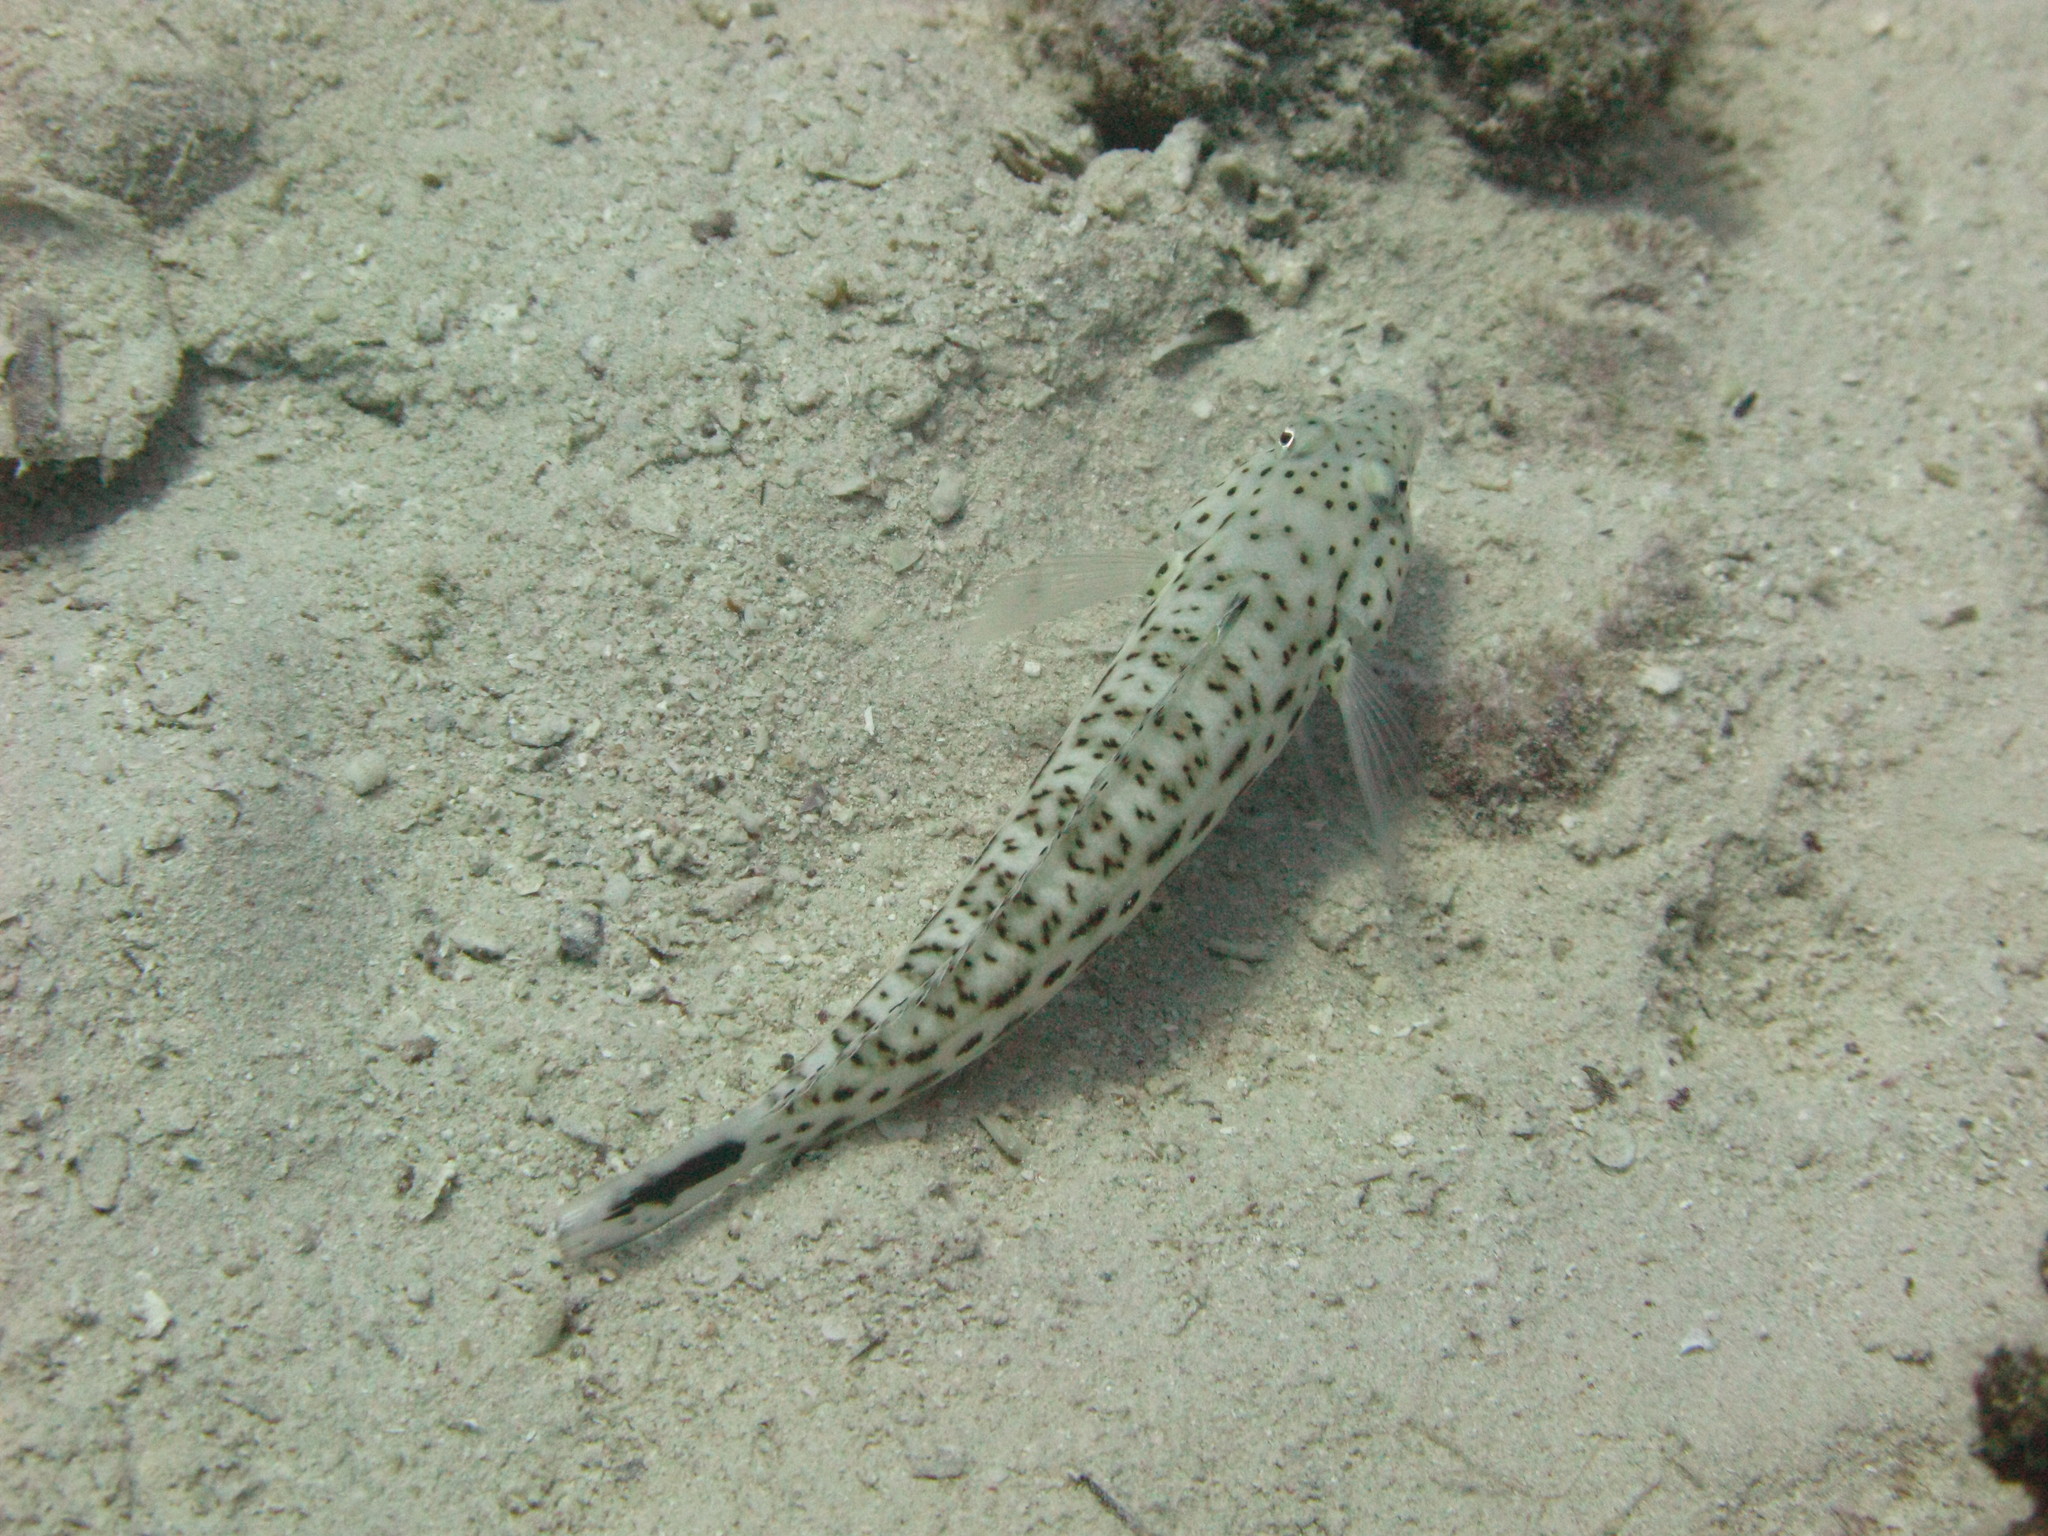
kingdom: Animalia
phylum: Chordata
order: Perciformes
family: Pinguipedidae
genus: Parapercis
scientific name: Parapercis hexophtalma
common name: Speckled sandperch
